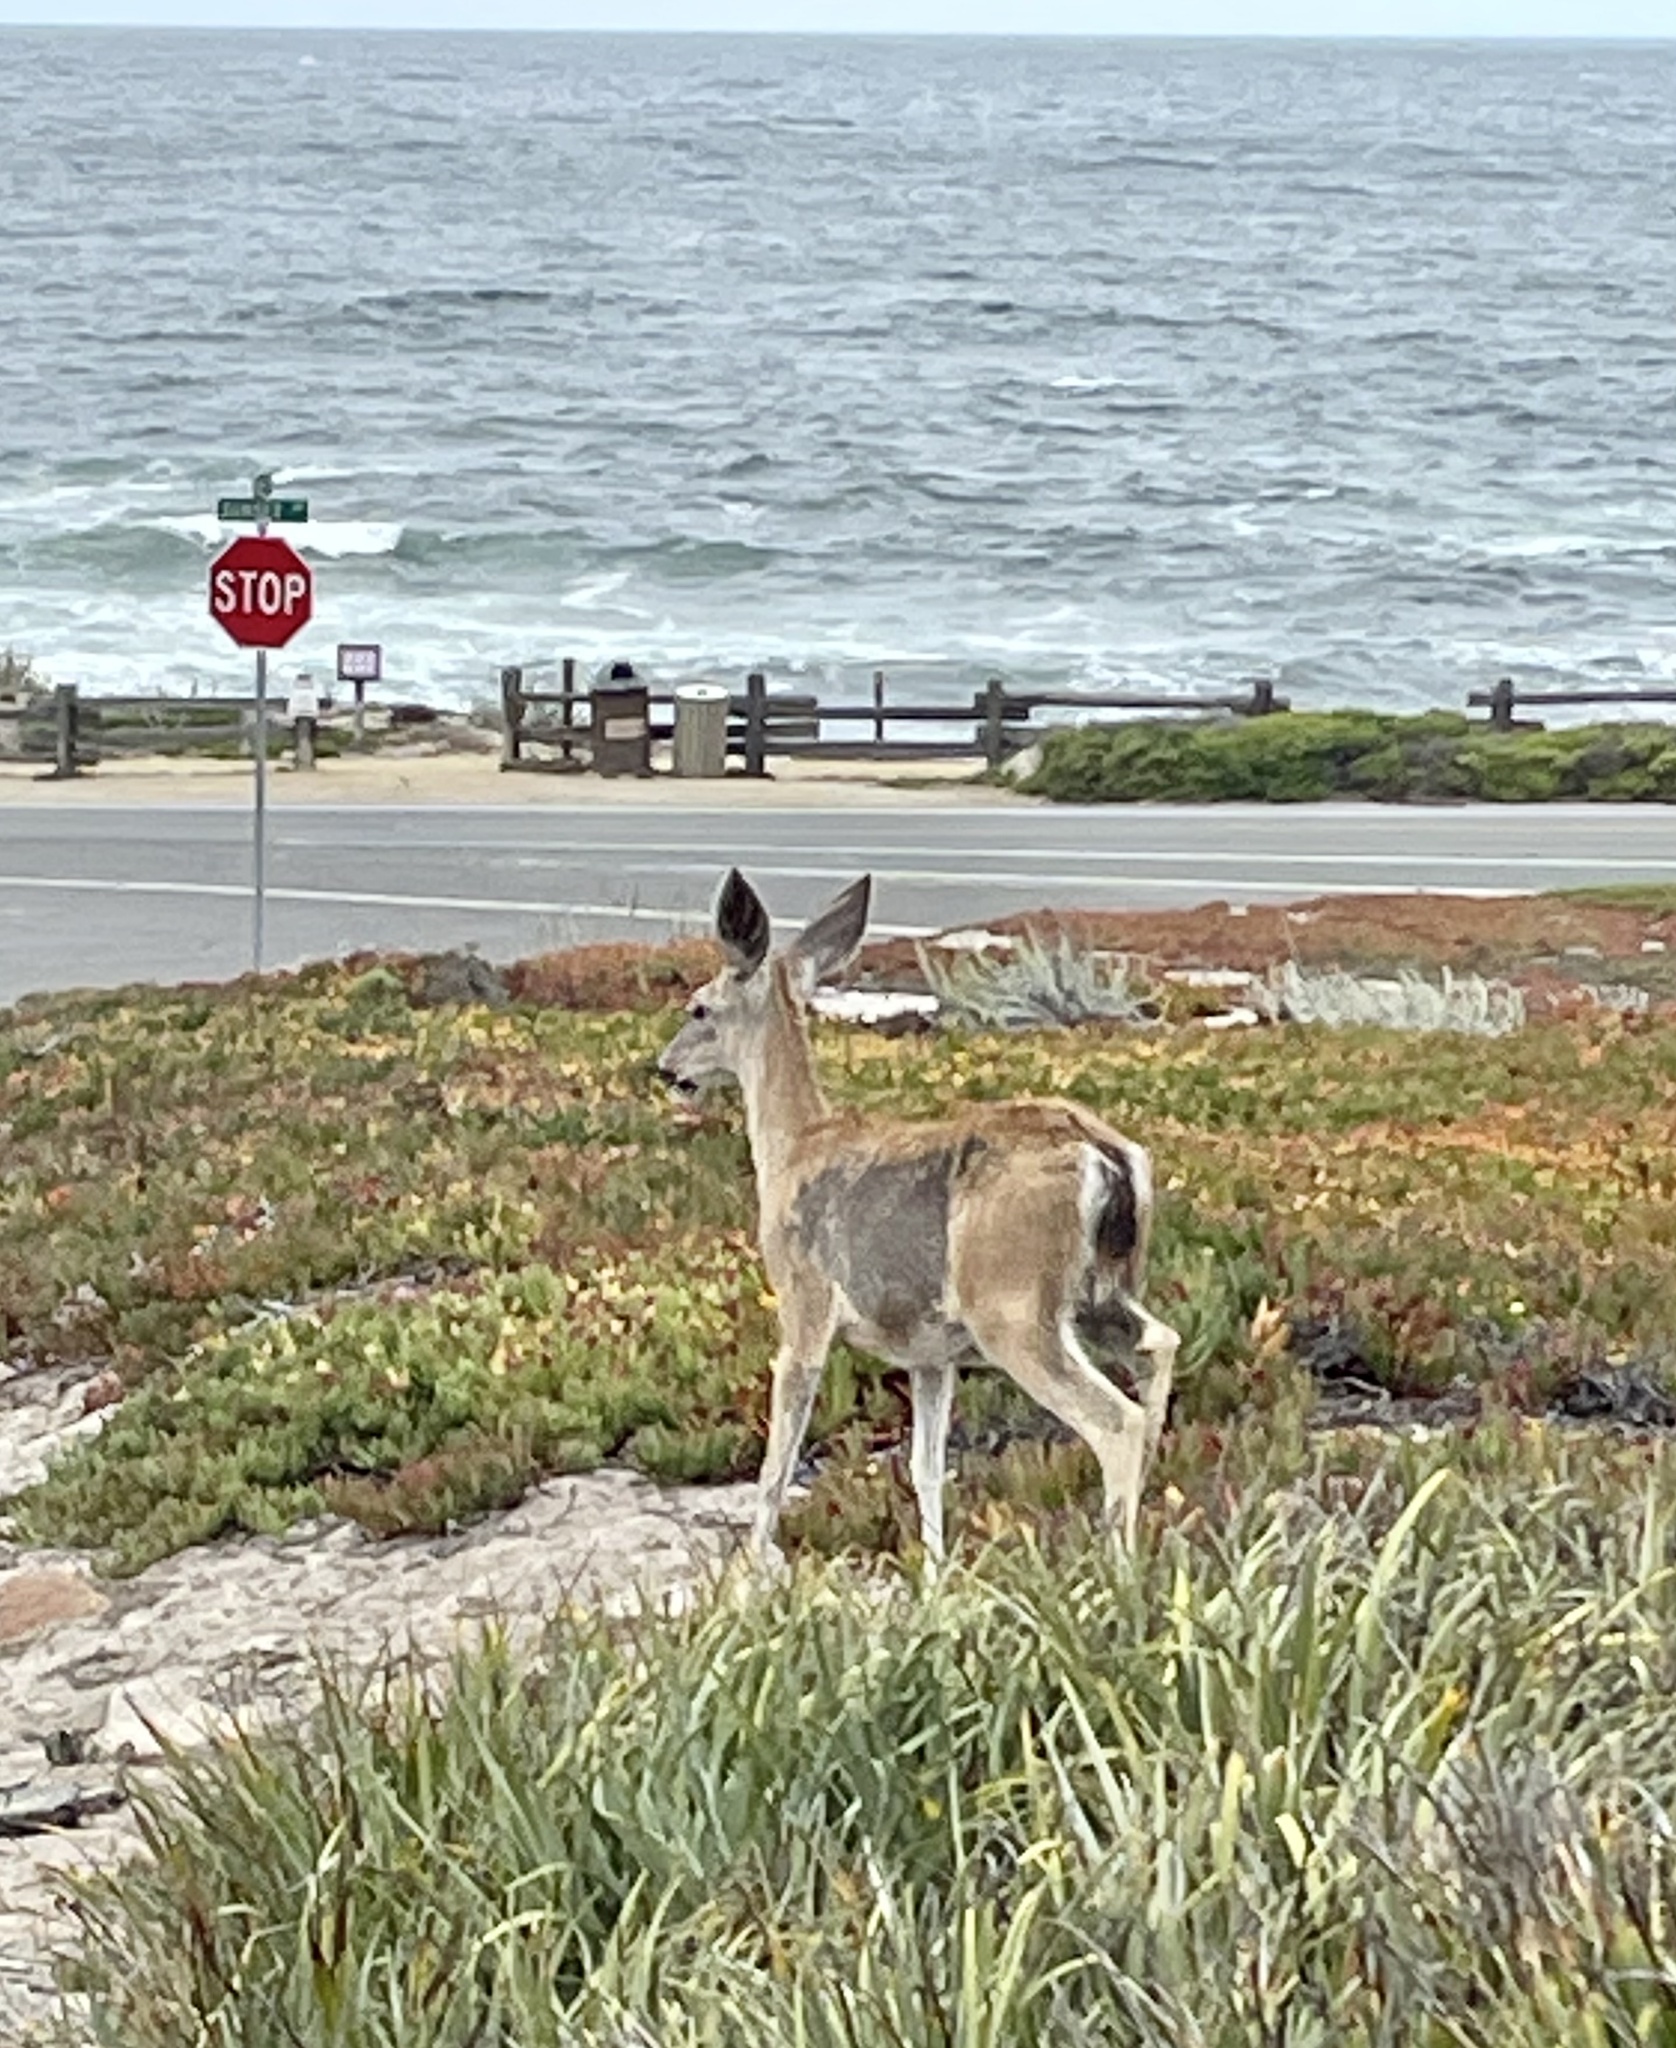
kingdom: Animalia
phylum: Chordata
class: Mammalia
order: Artiodactyla
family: Cervidae
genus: Odocoileus
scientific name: Odocoileus hemionus
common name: Mule deer
